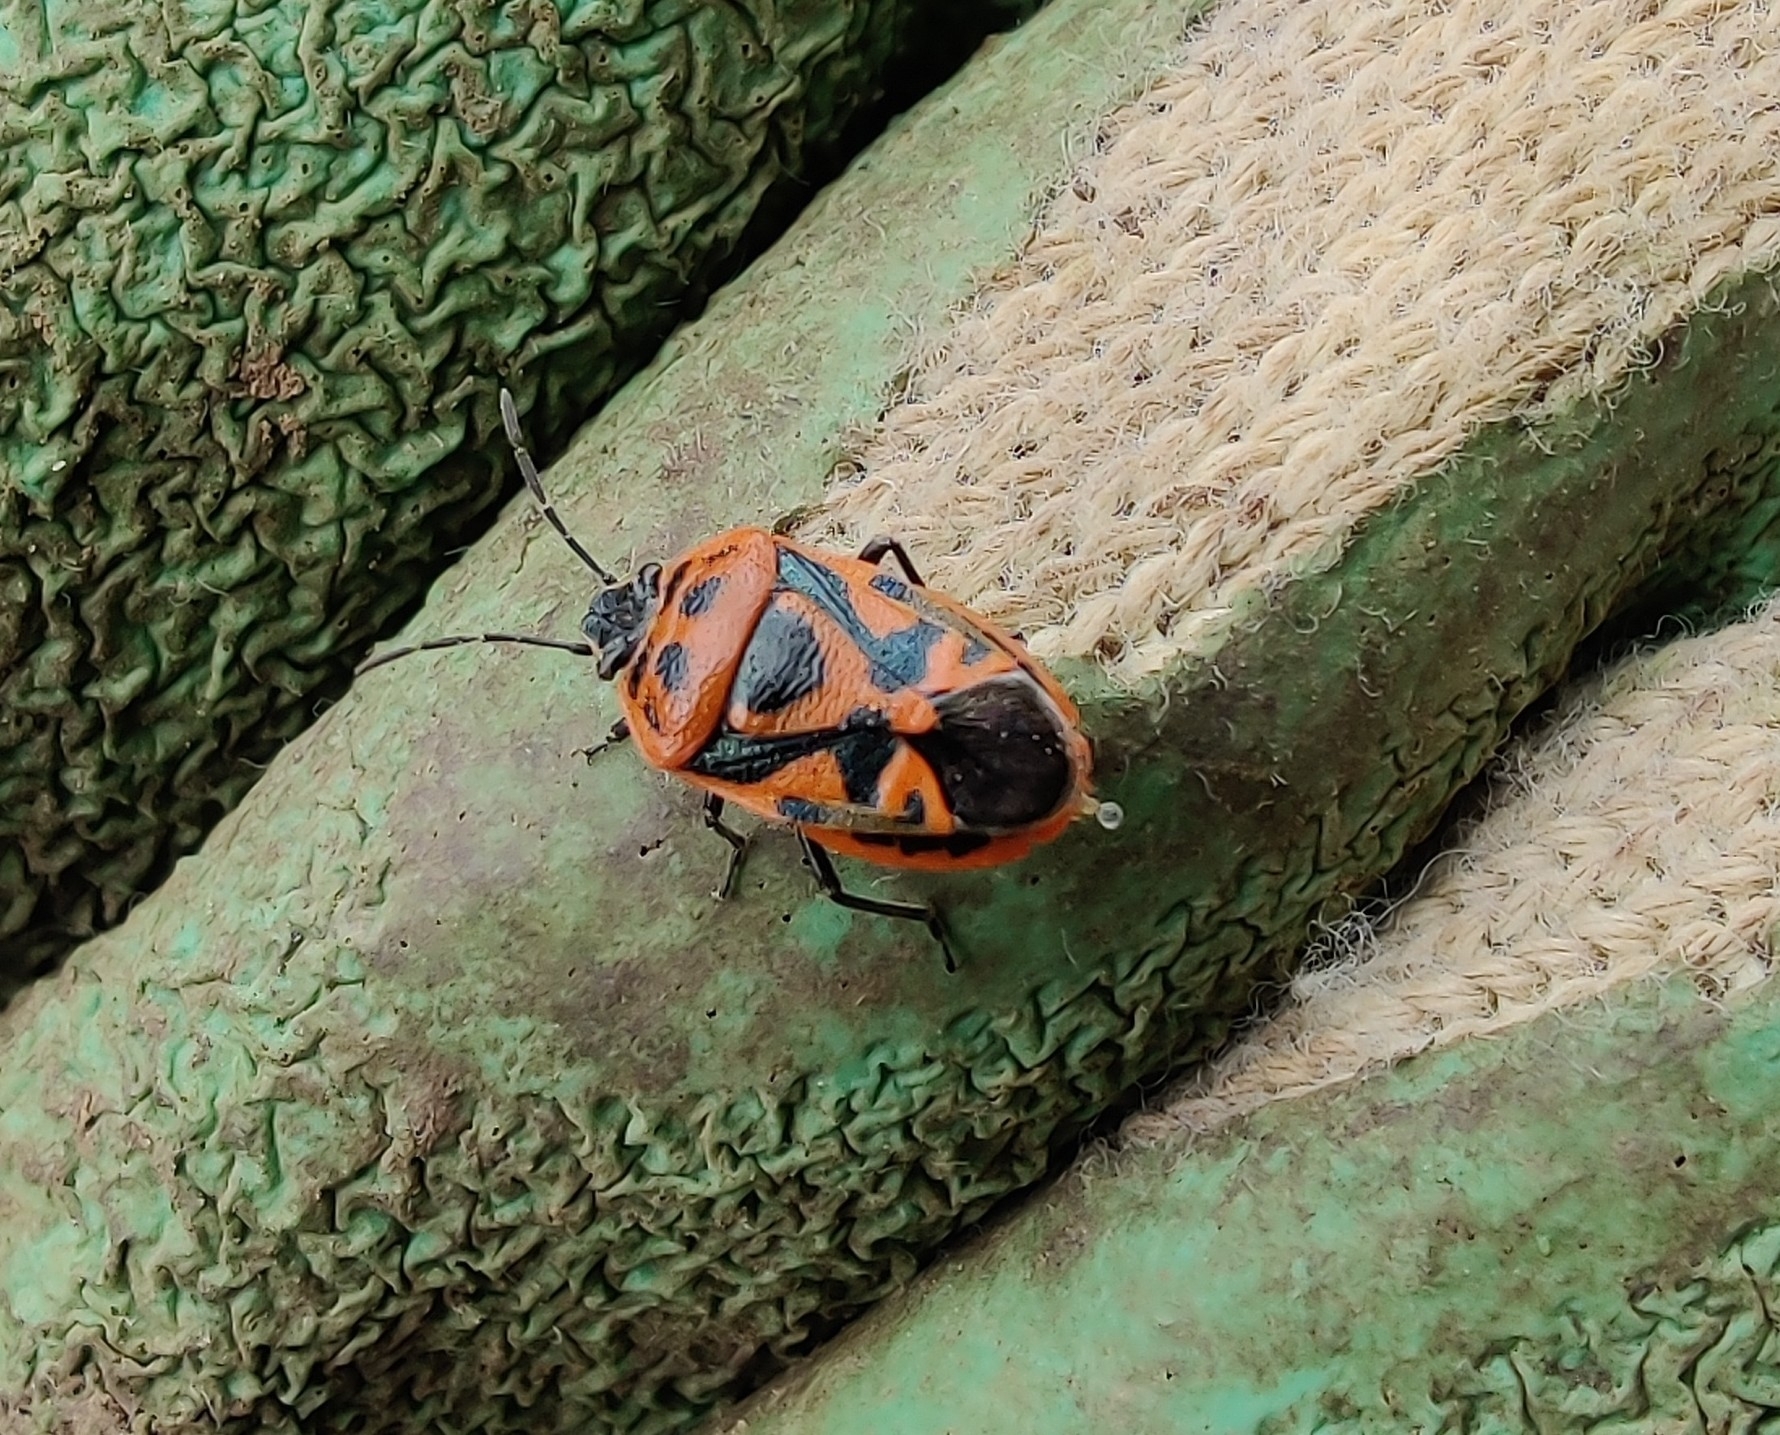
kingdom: Animalia
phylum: Arthropoda
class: Insecta
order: Hemiptera
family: Pentatomidae
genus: Eurydema
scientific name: Eurydema ornata
